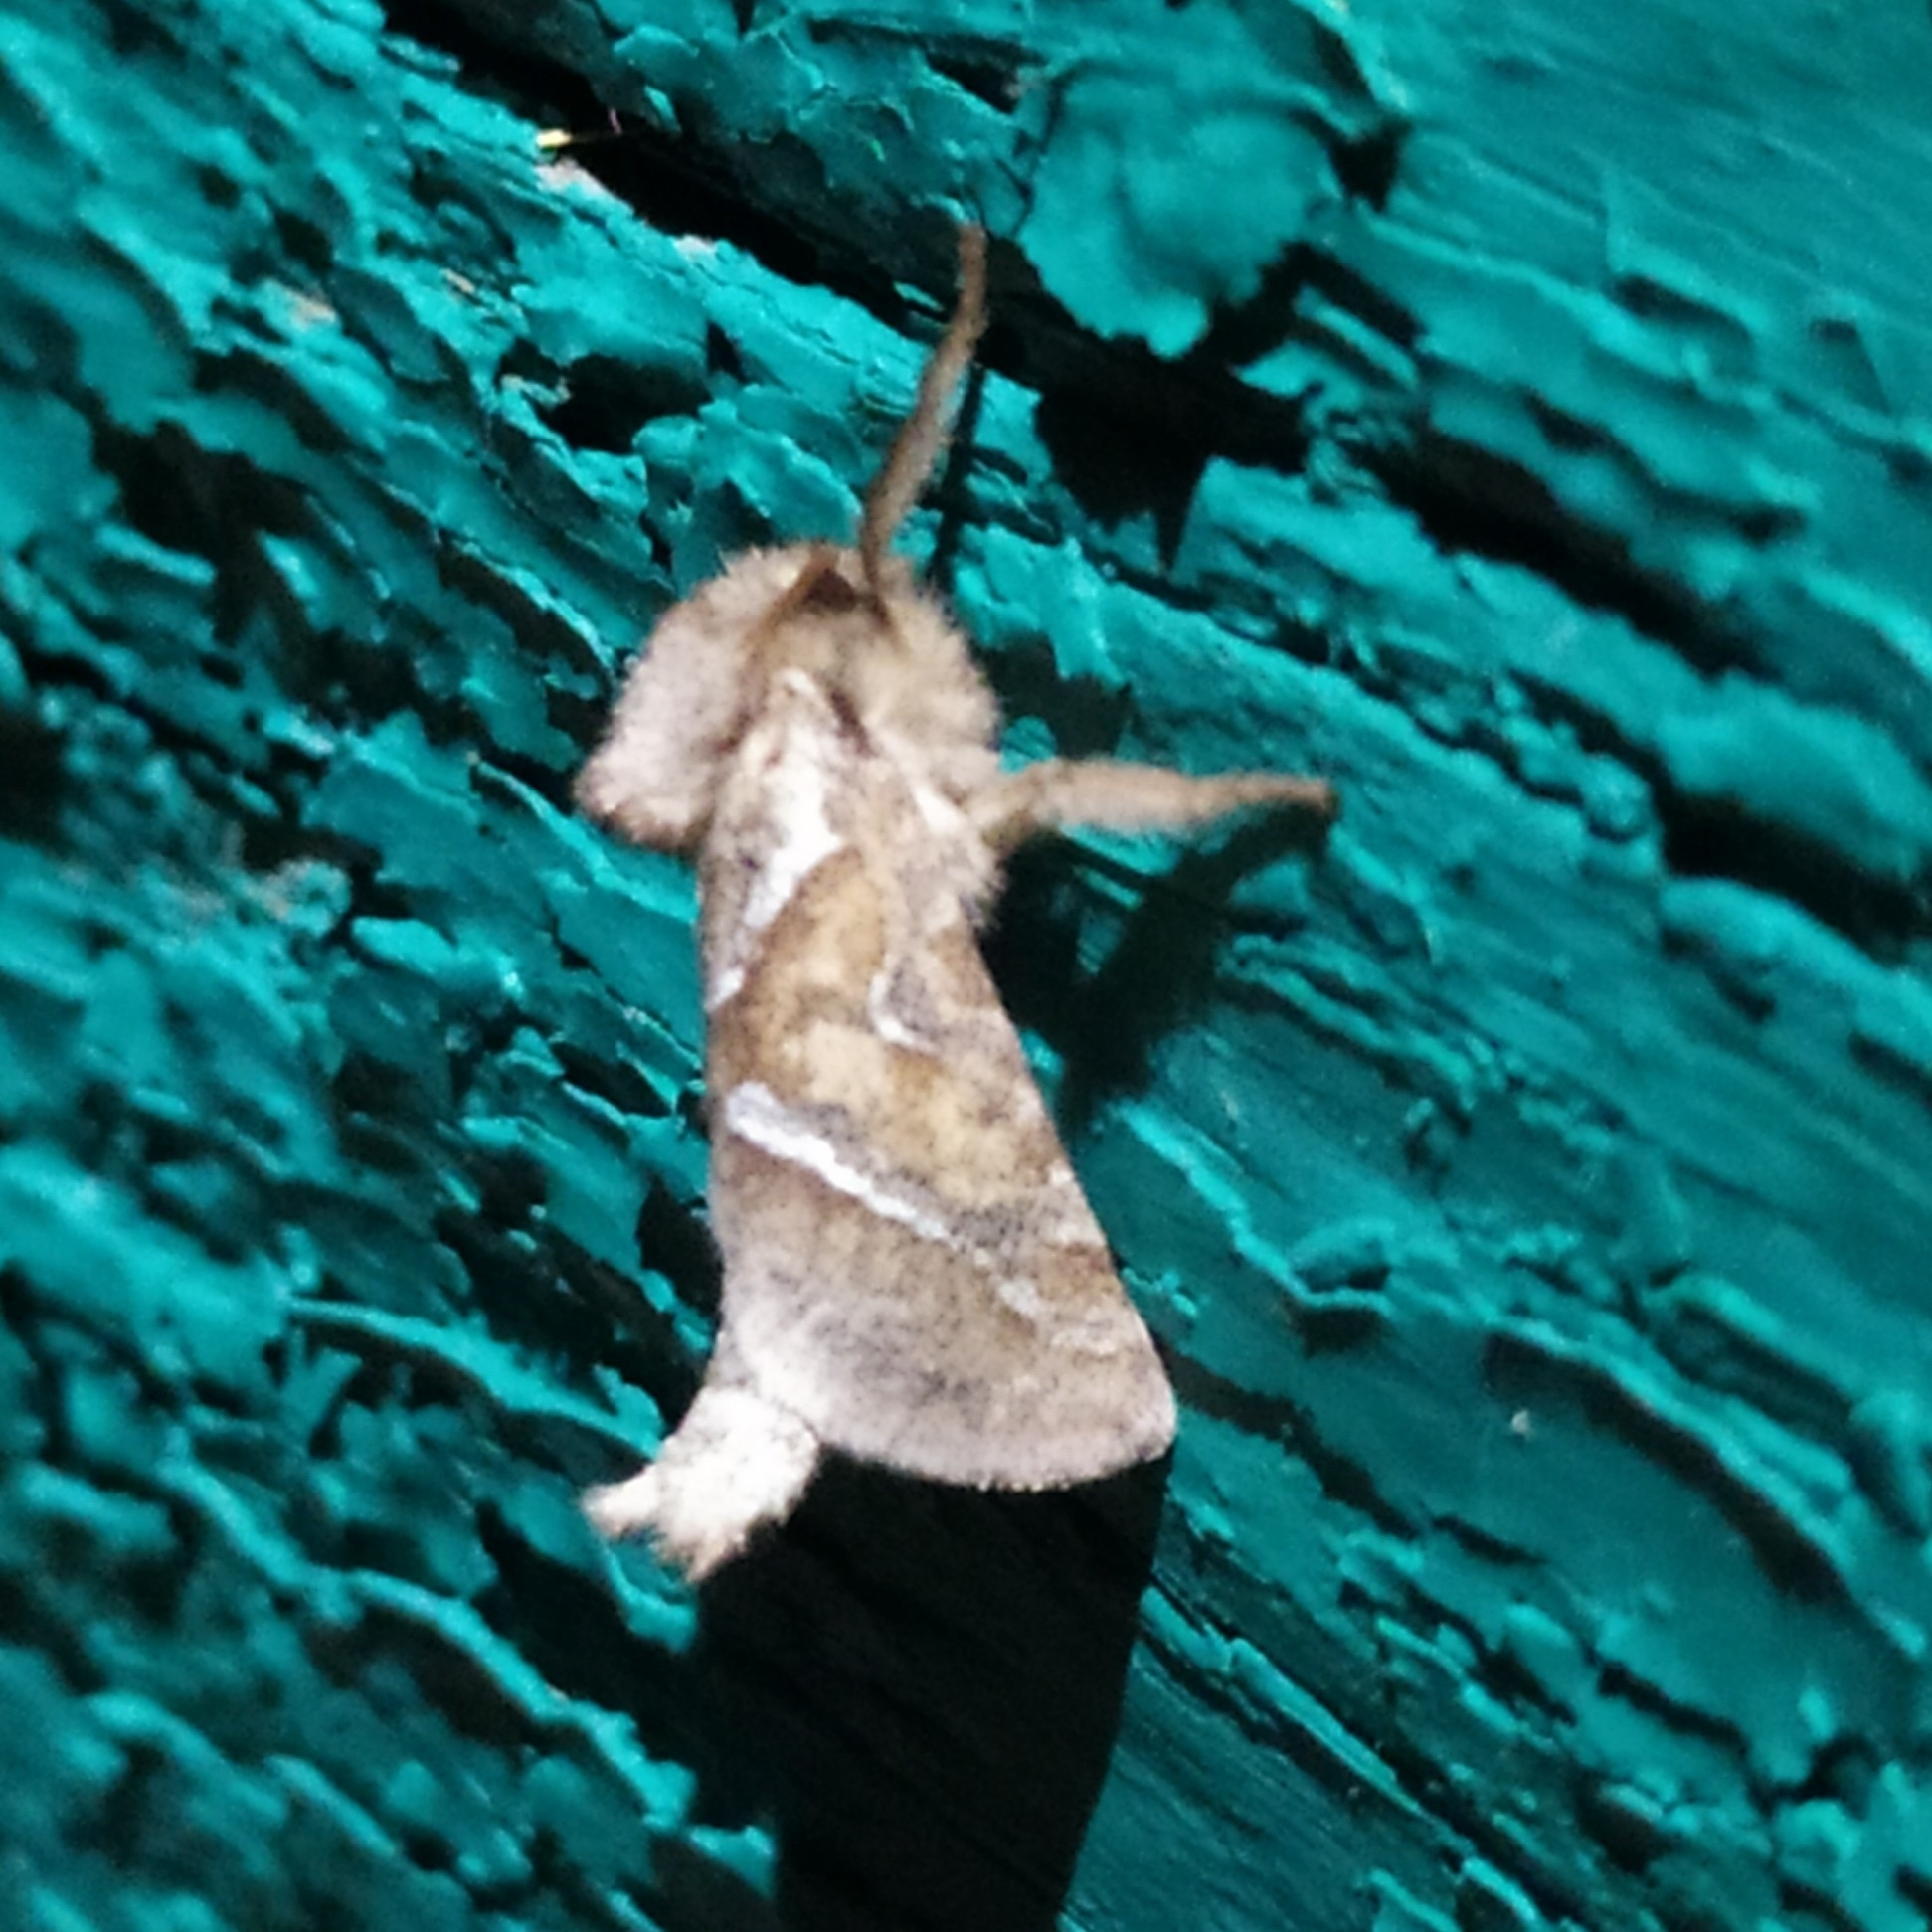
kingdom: Animalia
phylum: Arthropoda
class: Insecta
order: Lepidoptera
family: Hepialidae
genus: Triodia
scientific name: Triodia sylvina
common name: Orange swift
